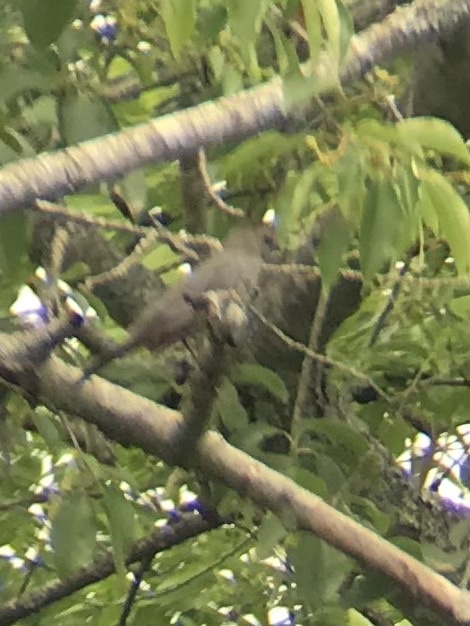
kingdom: Animalia
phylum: Chordata
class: Aves
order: Passeriformes
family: Mimidae
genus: Dumetella
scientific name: Dumetella carolinensis
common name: Gray catbird
